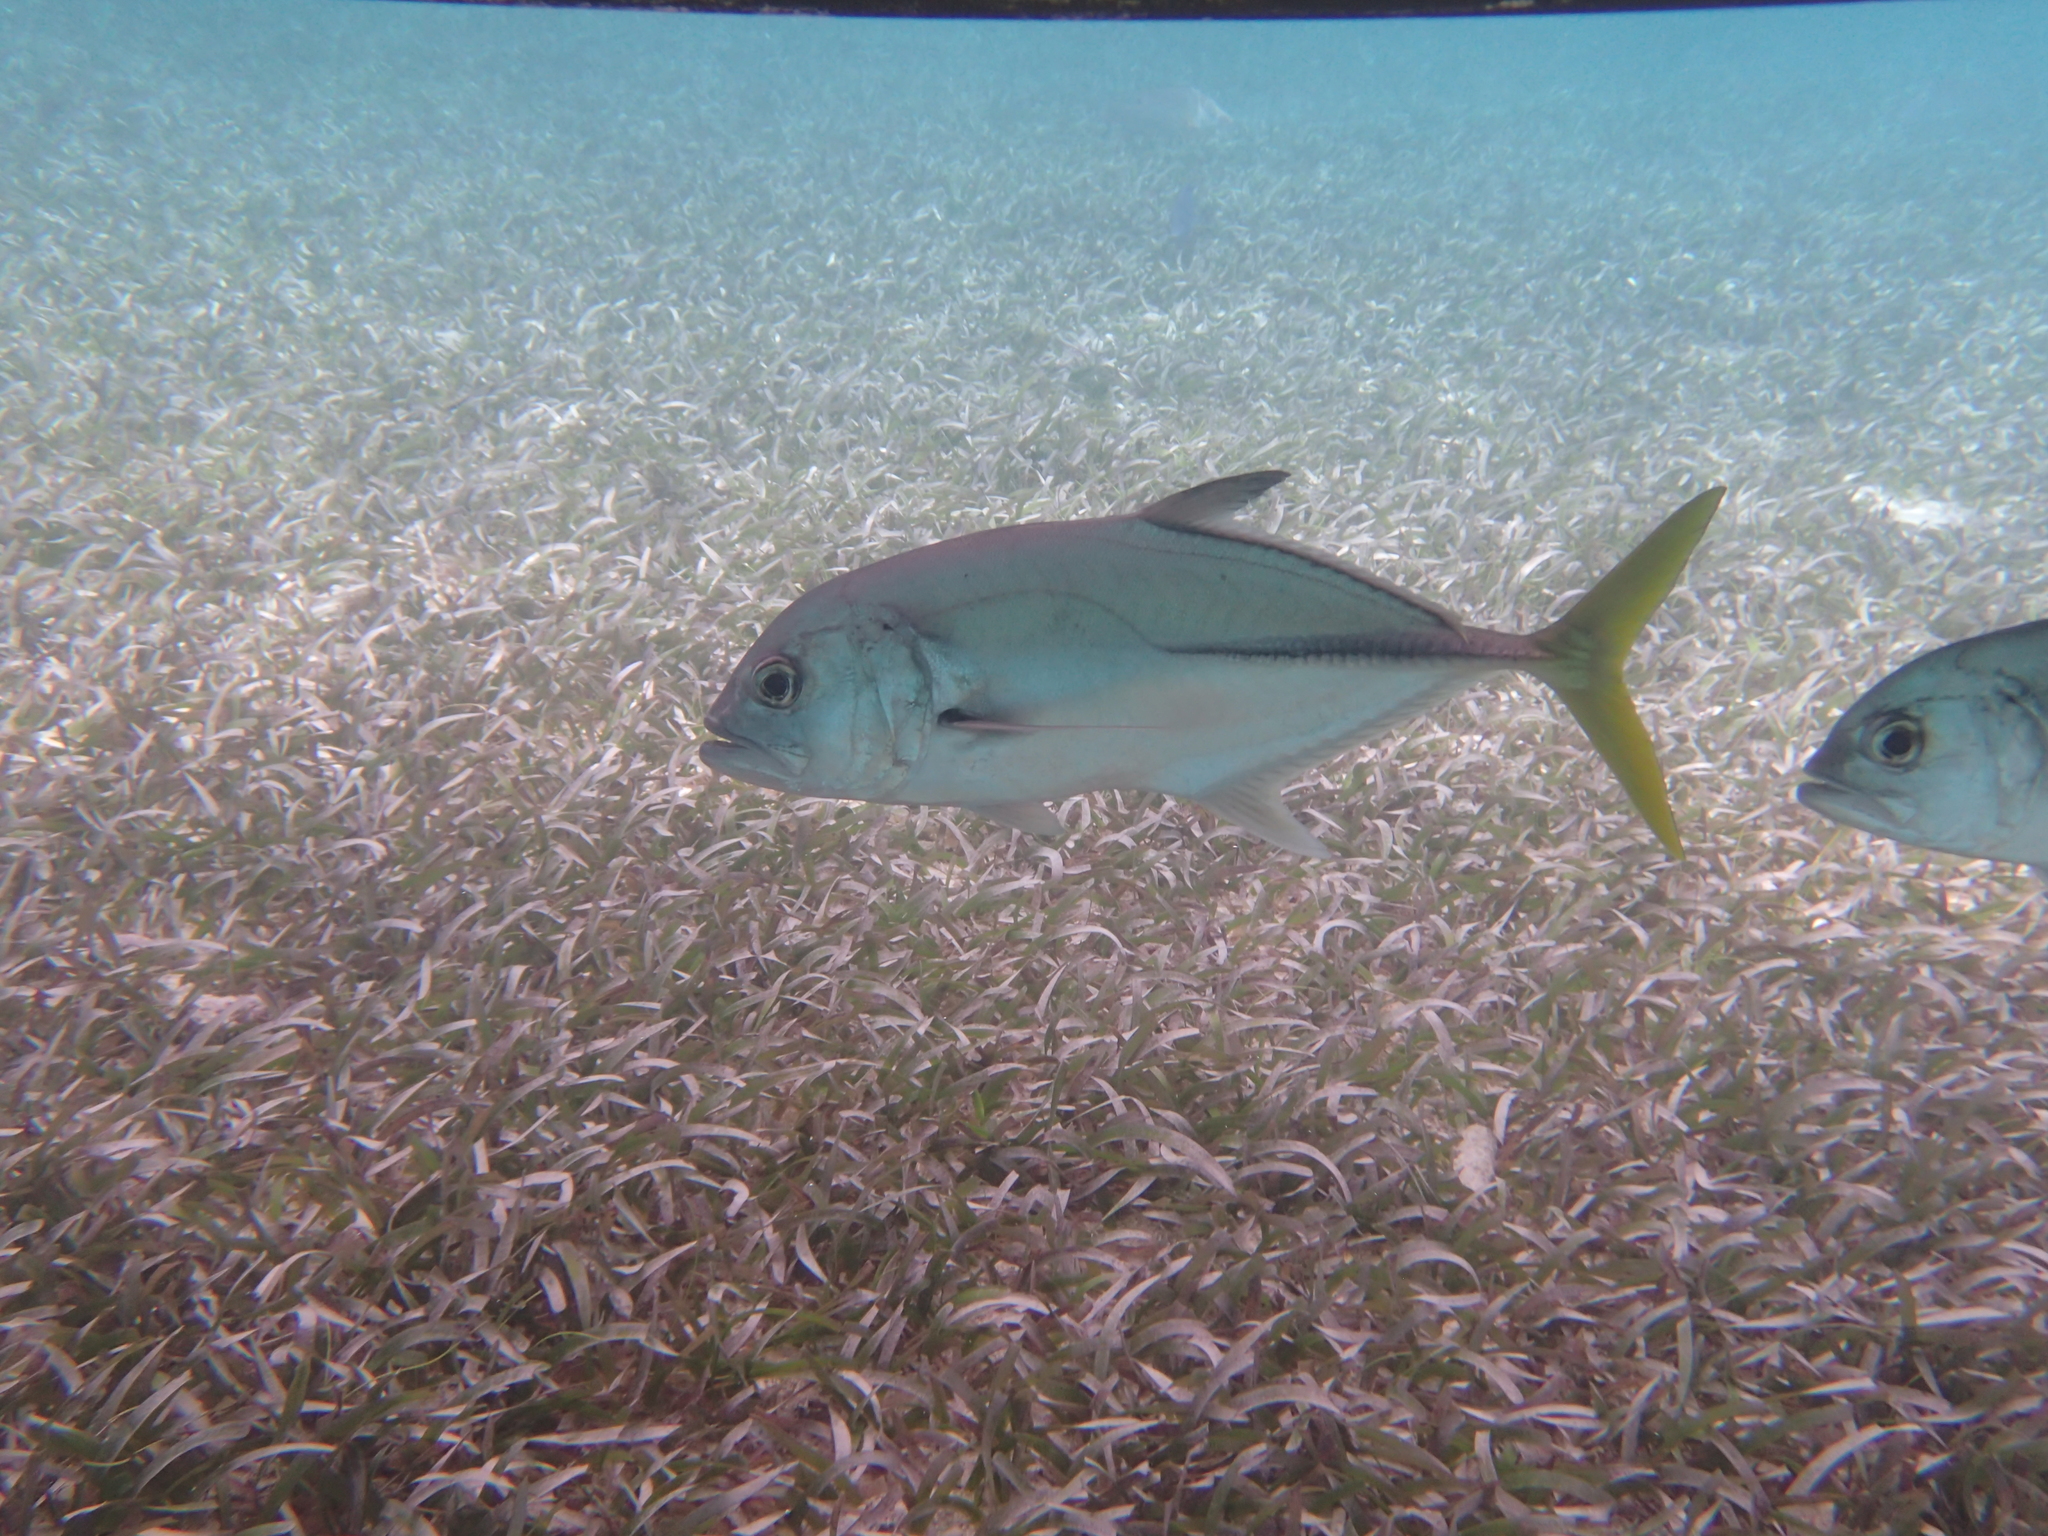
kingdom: Animalia
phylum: Chordata
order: Perciformes
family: Carangidae
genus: Caranx
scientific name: Caranx latus
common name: Horse eye jack
